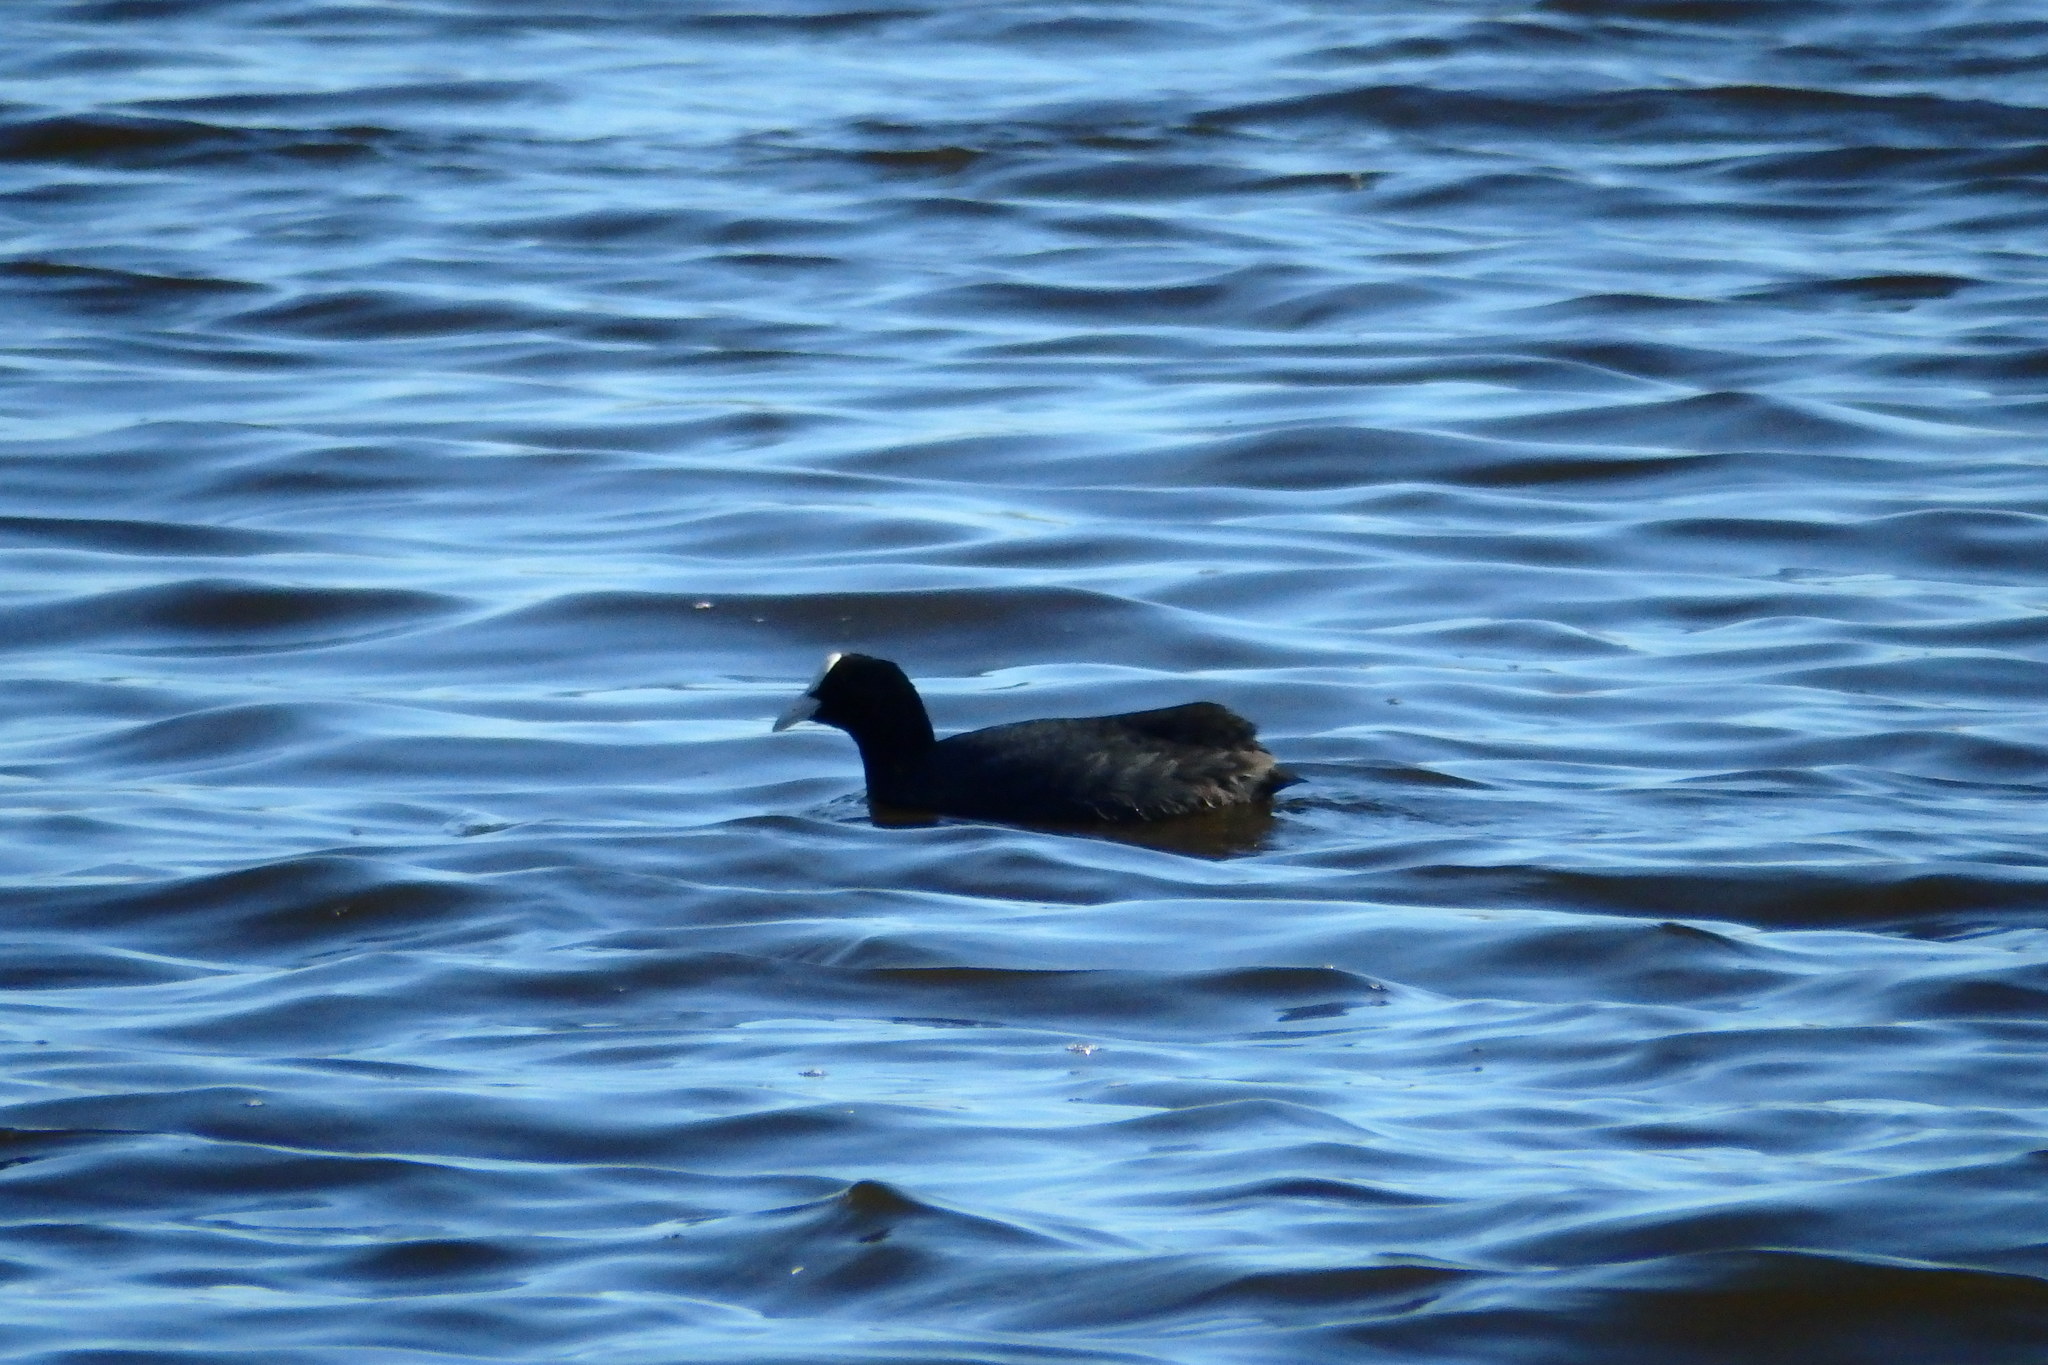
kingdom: Animalia
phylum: Chordata
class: Aves
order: Gruiformes
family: Rallidae
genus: Fulica
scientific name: Fulica atra
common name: Eurasian coot
